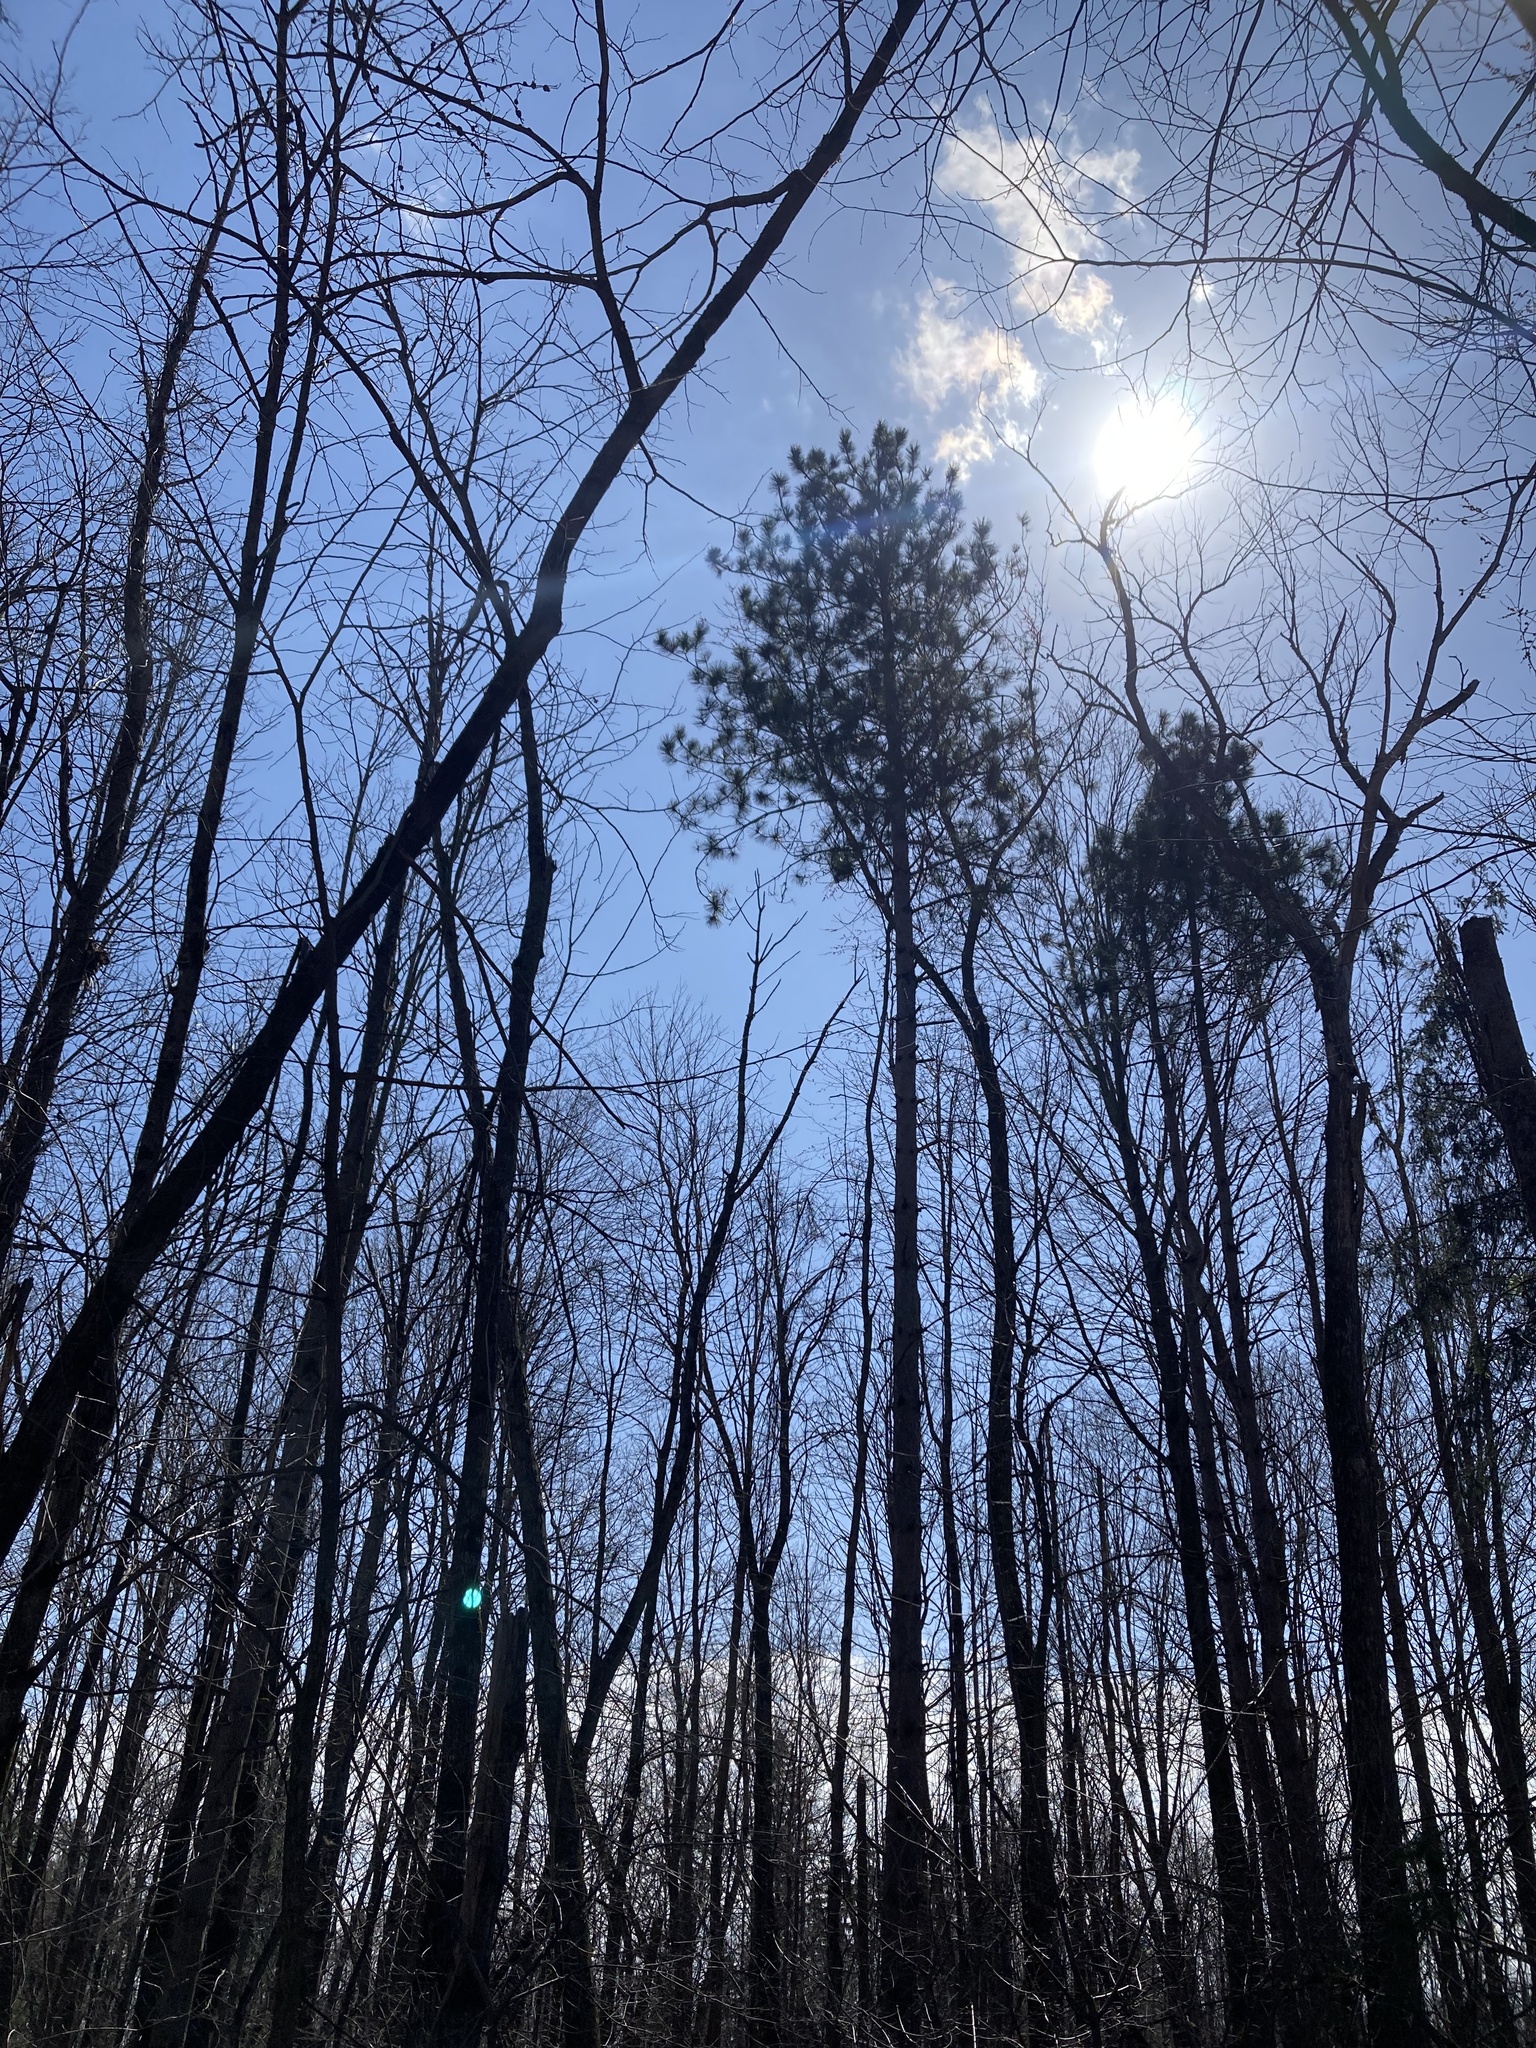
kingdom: Plantae
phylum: Tracheophyta
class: Pinopsida
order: Pinales
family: Pinaceae
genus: Pinus
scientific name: Pinus resinosa
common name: Norway pine
